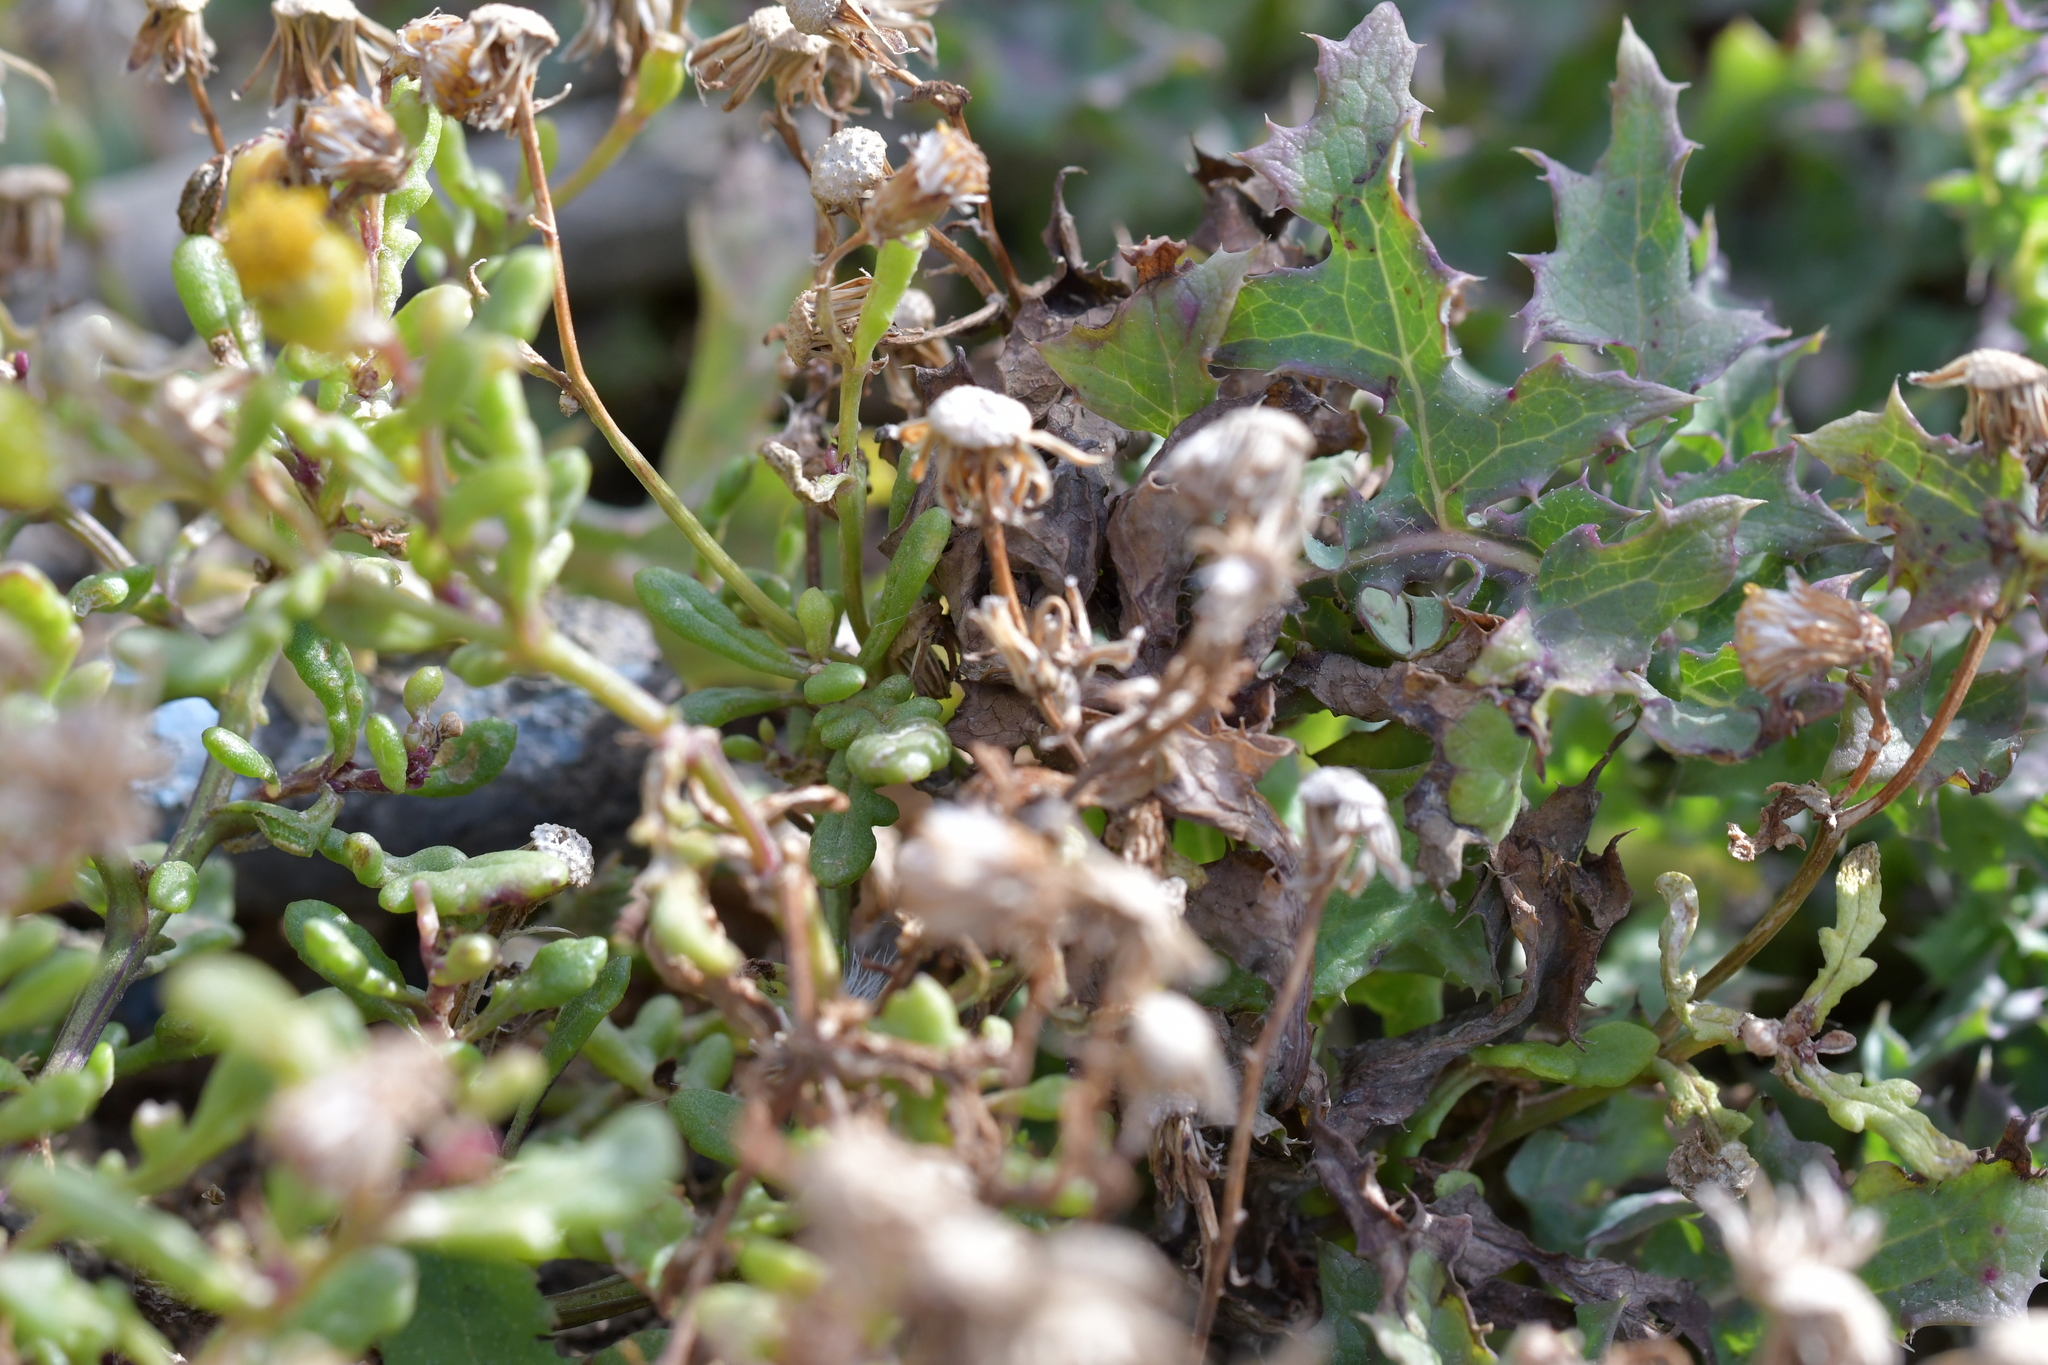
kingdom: Plantae
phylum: Tracheophyta
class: Magnoliopsida
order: Asterales
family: Asteraceae
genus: Senecio
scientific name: Senecio lautus
